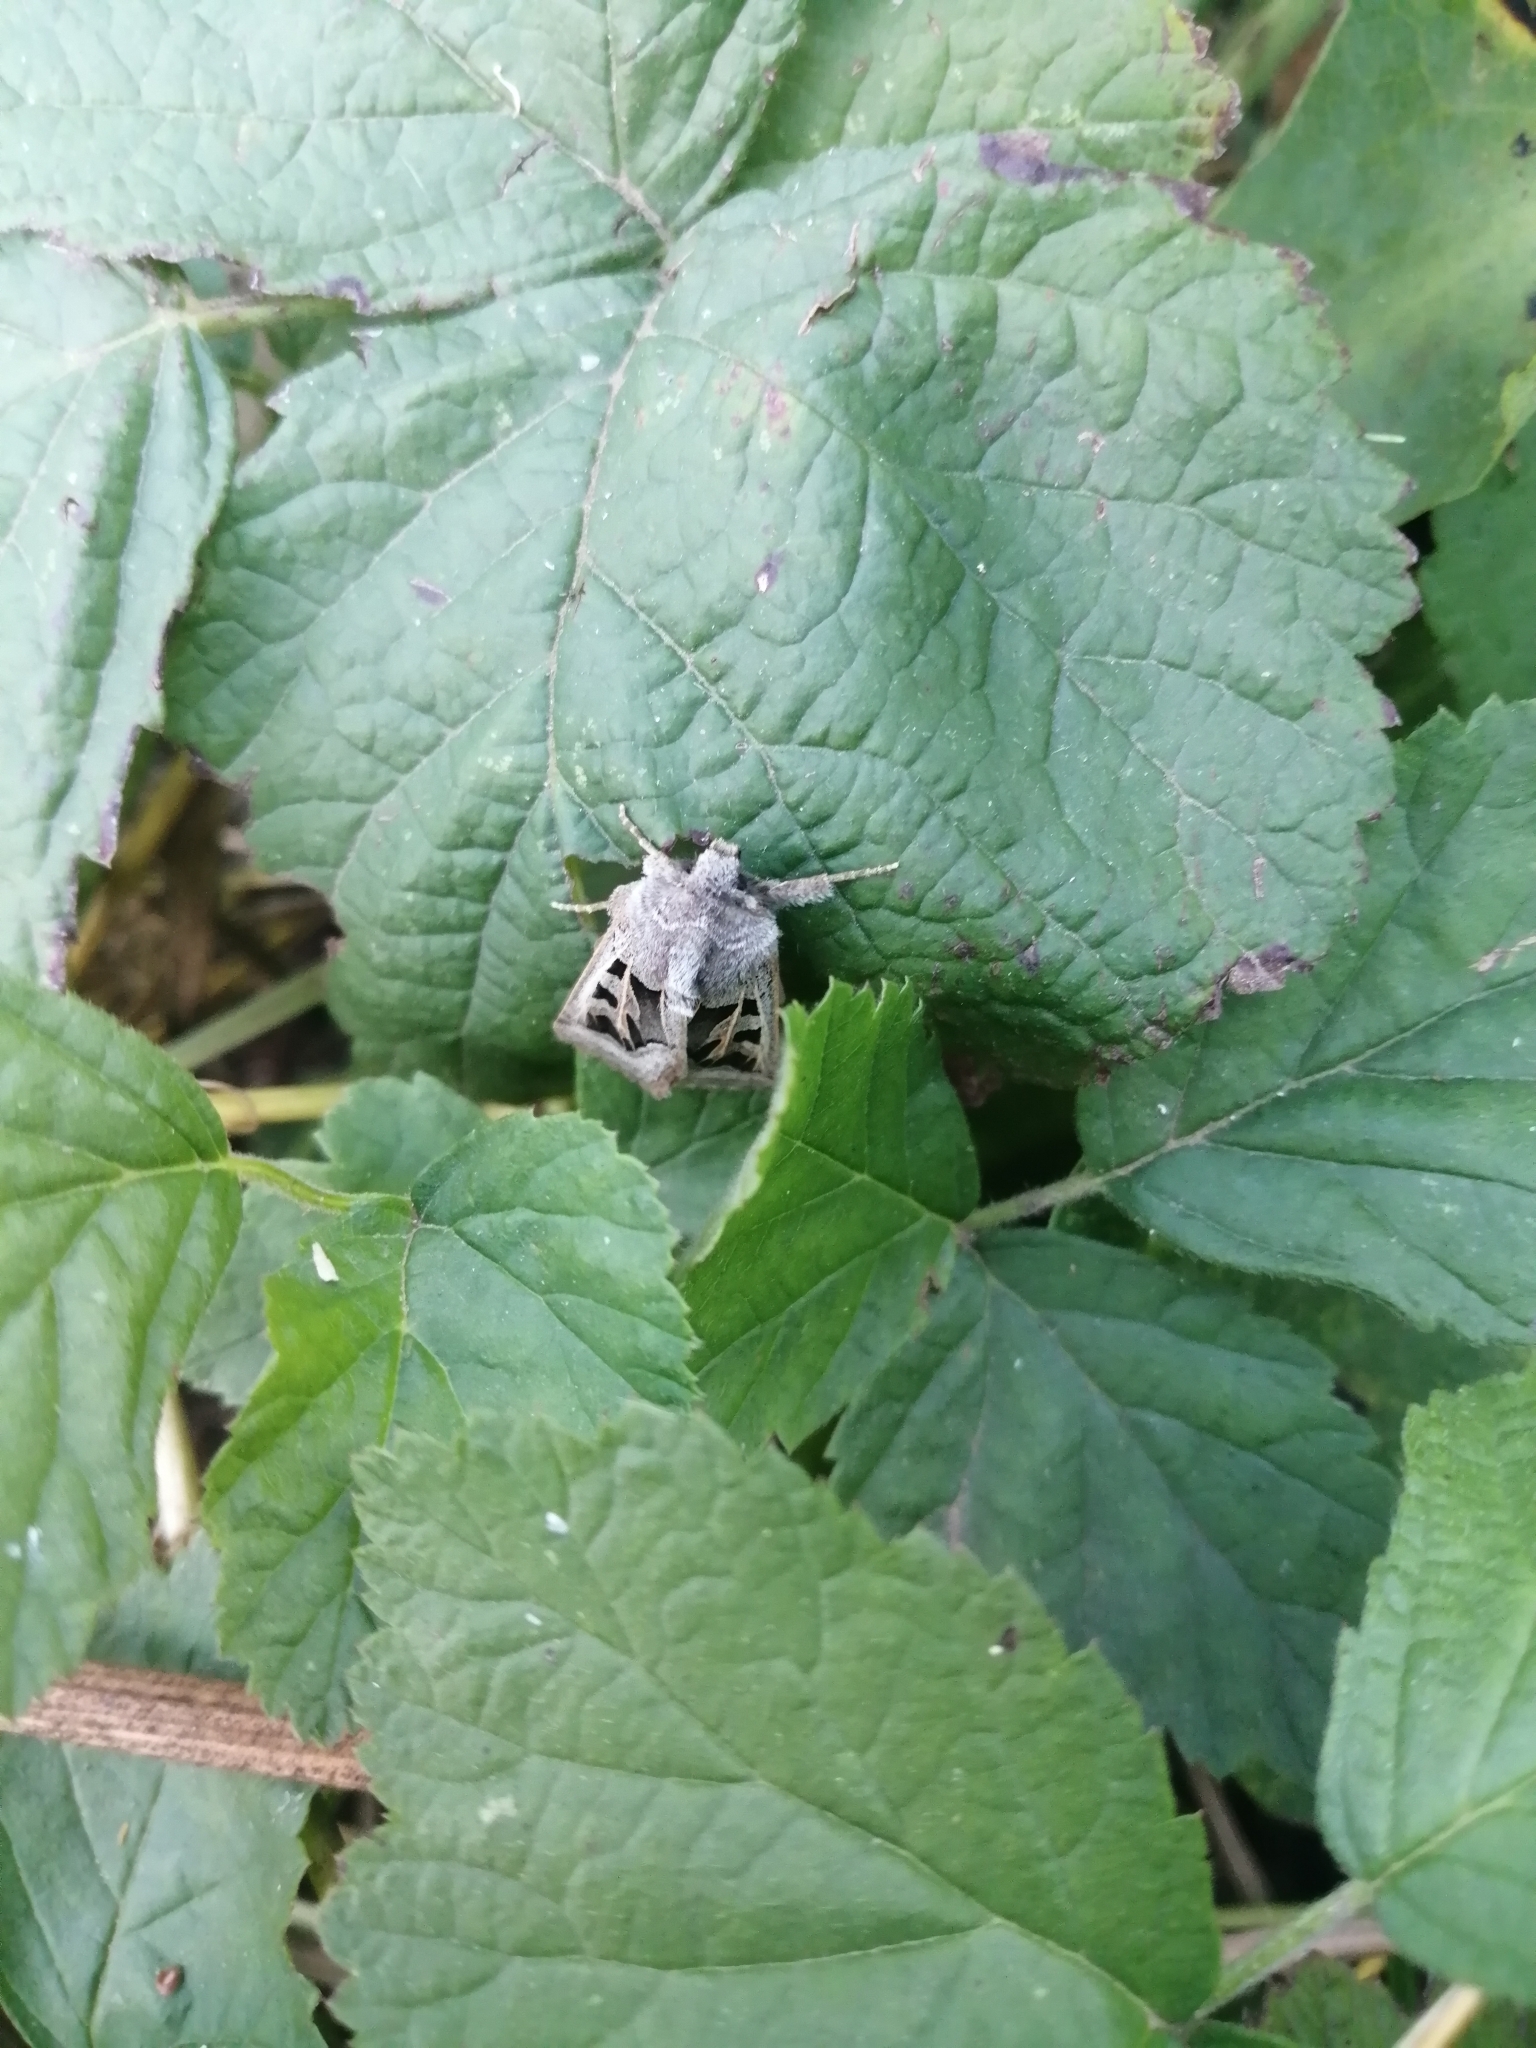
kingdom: Animalia
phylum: Arthropoda
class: Insecta
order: Lepidoptera
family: Noctuidae
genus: Episema
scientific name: Episema glaucina
